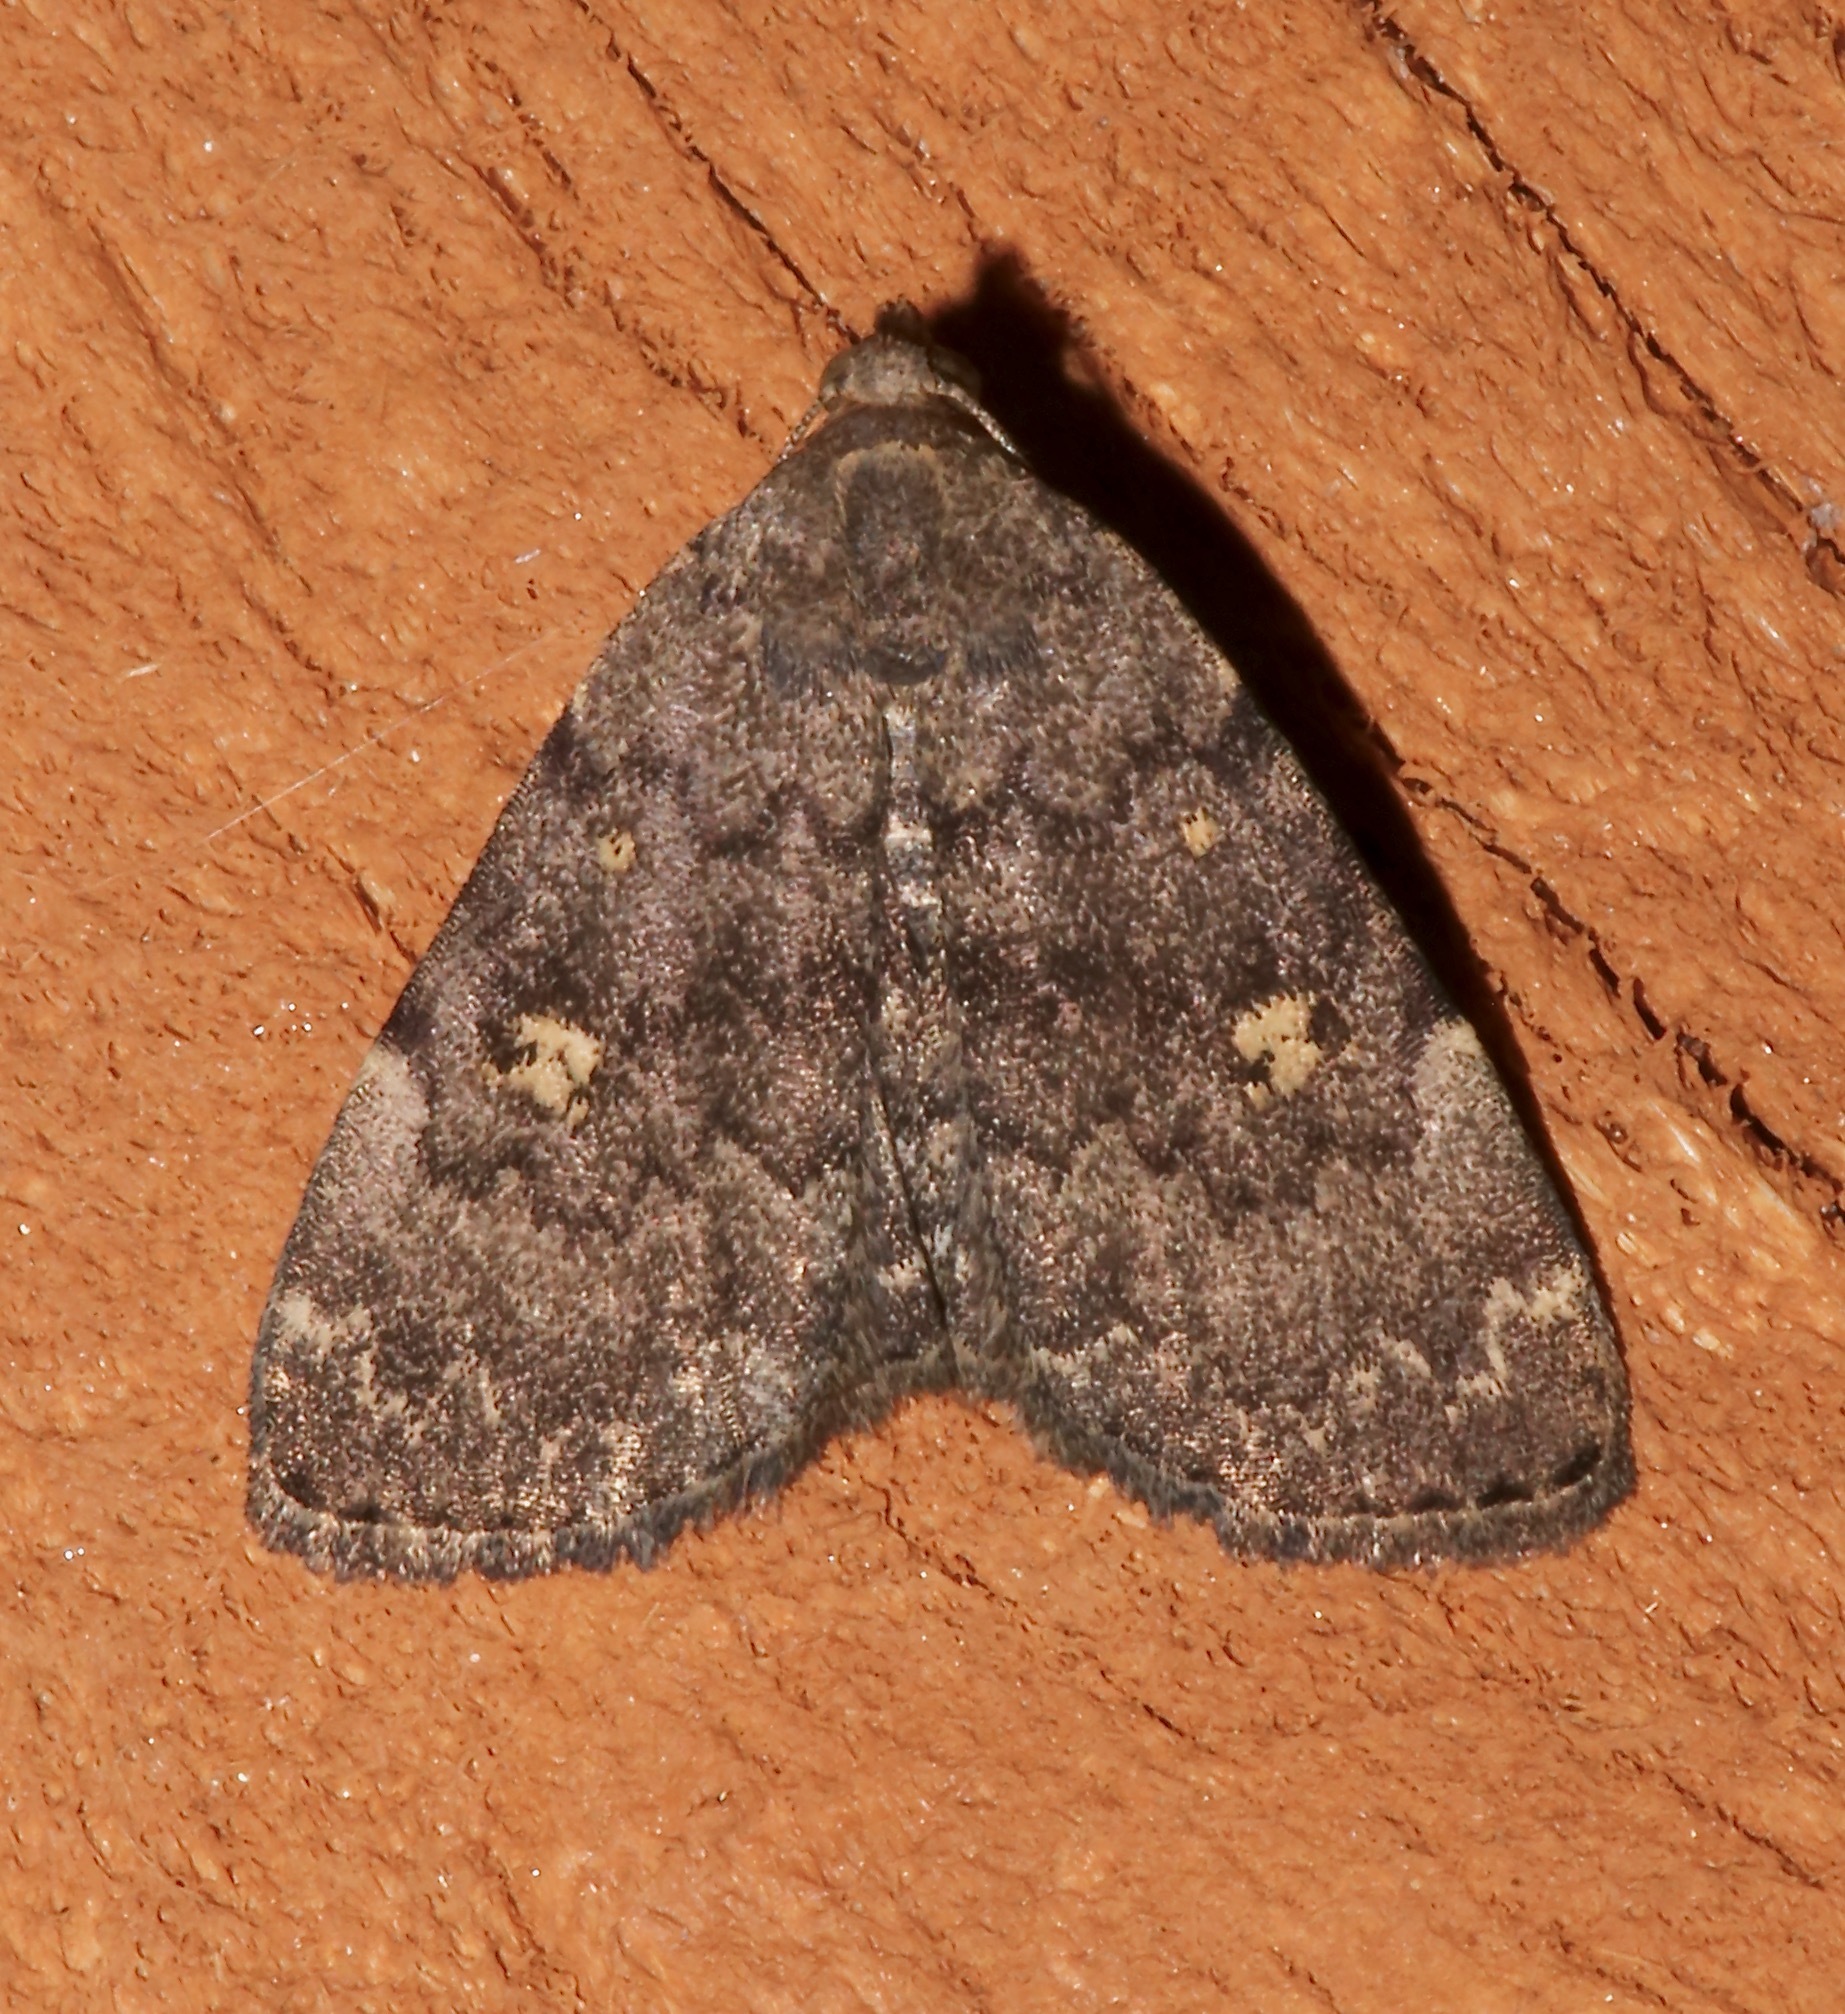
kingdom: Animalia
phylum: Arthropoda
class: Insecta
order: Lepidoptera
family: Erebidae
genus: Idia
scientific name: Idia aemula
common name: Common idia moth
